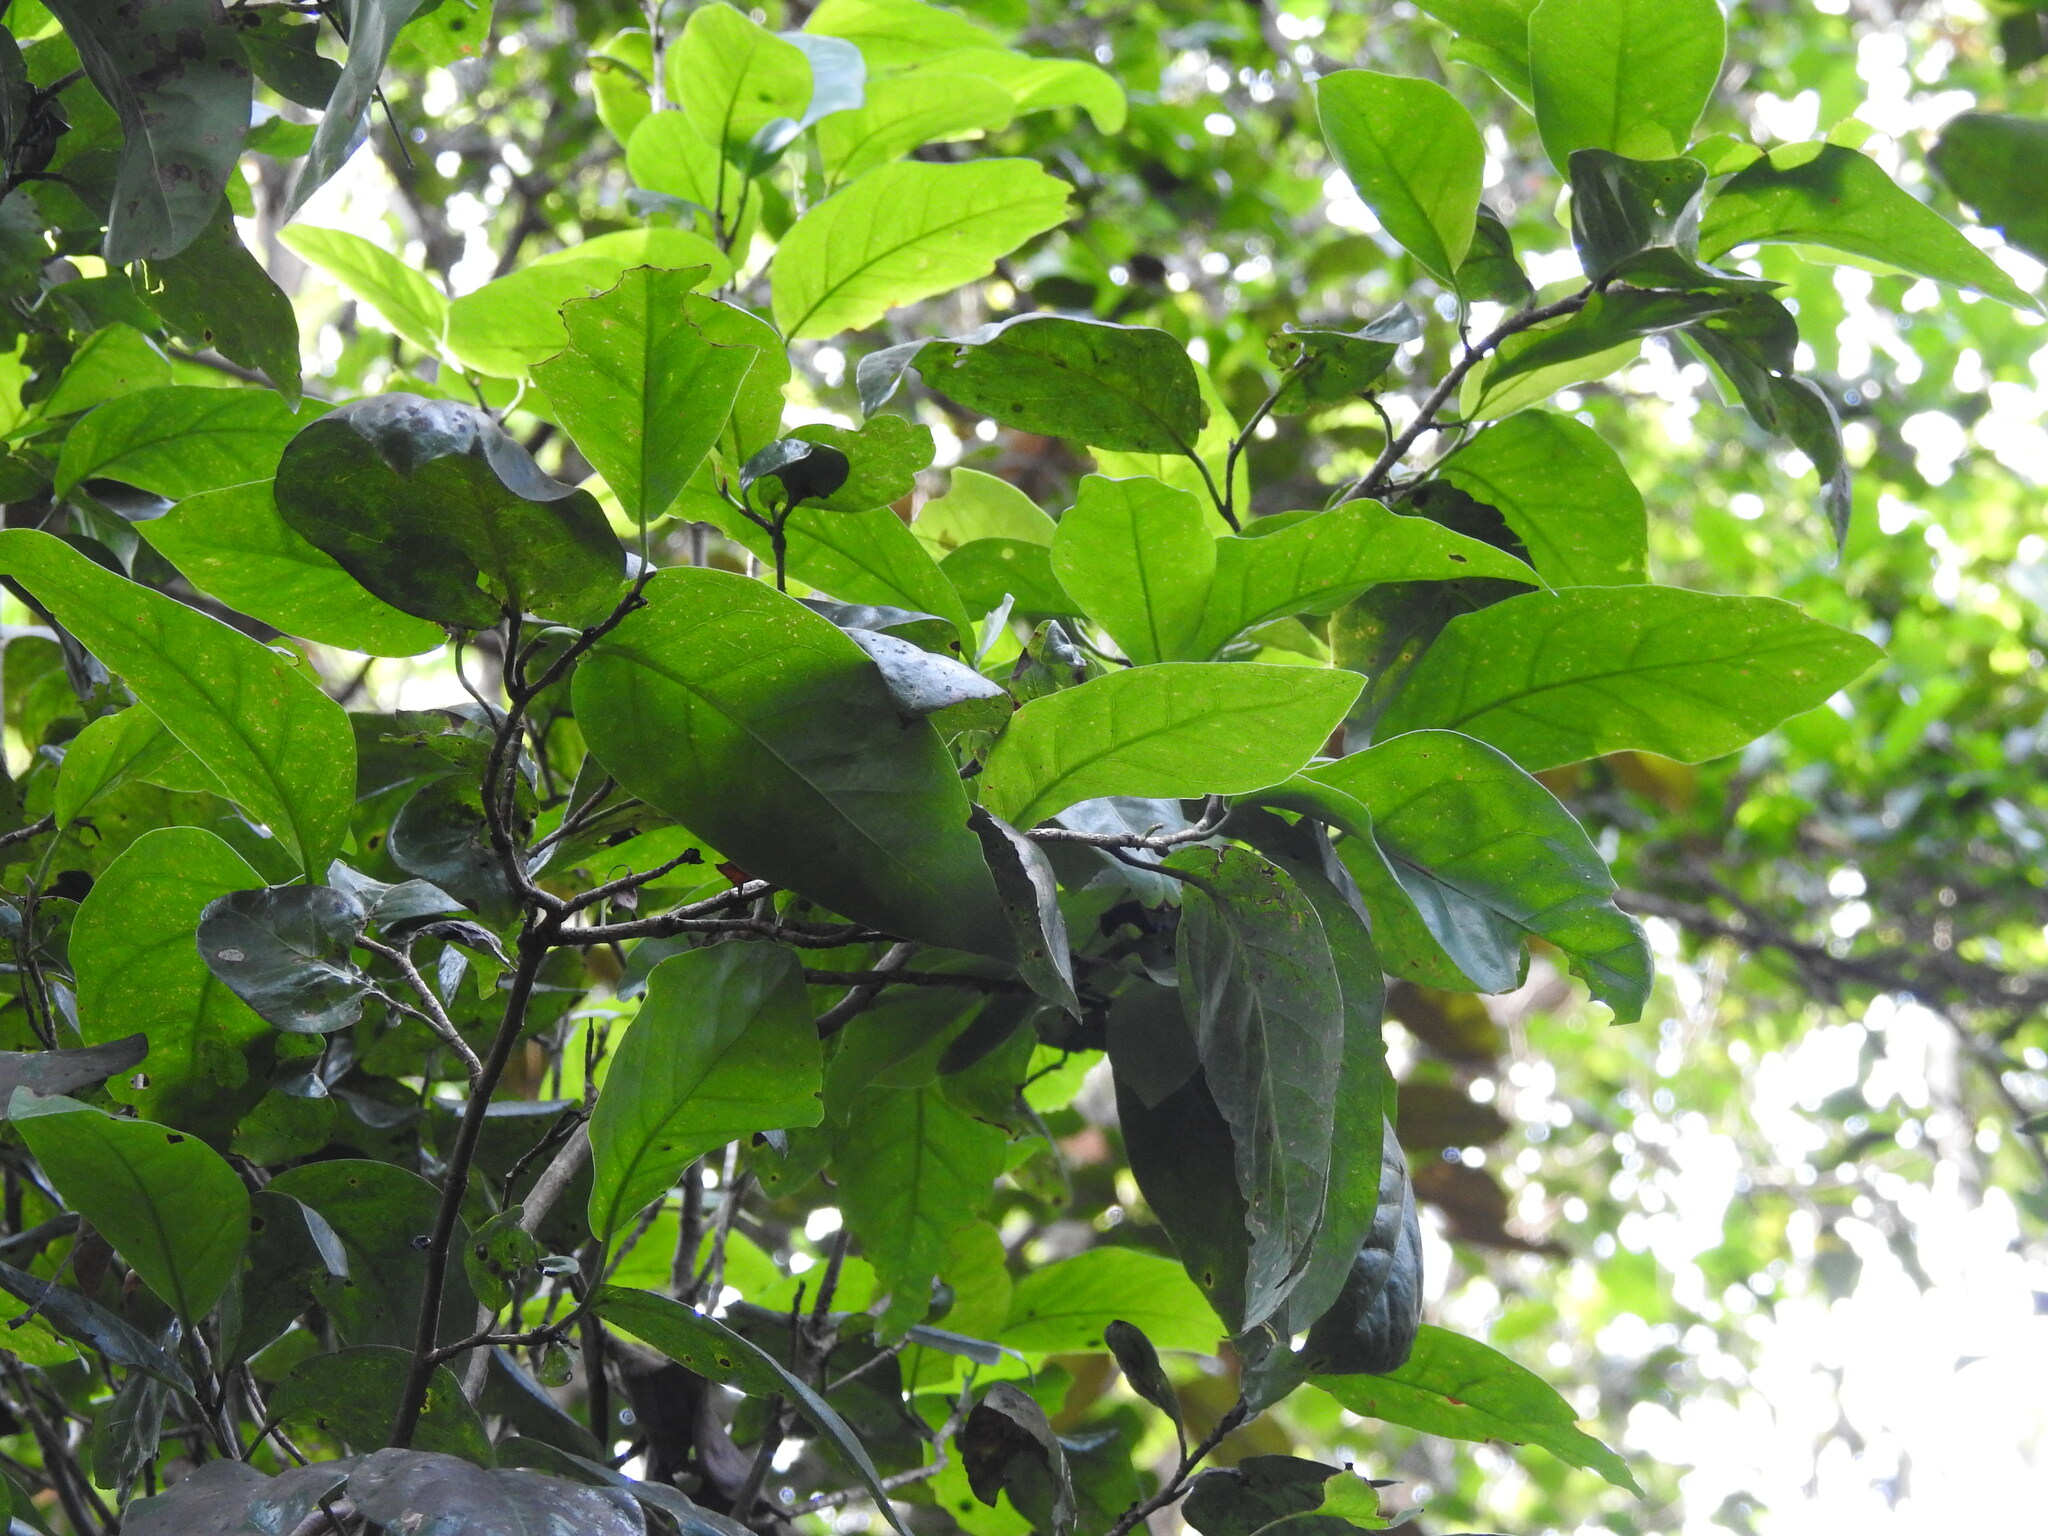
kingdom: Plantae
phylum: Tracheophyta
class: Magnoliopsida
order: Caryophyllales
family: Polygonaceae
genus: Coccoloba
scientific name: Coccoloba diversifolia
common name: Pigeon-plum
